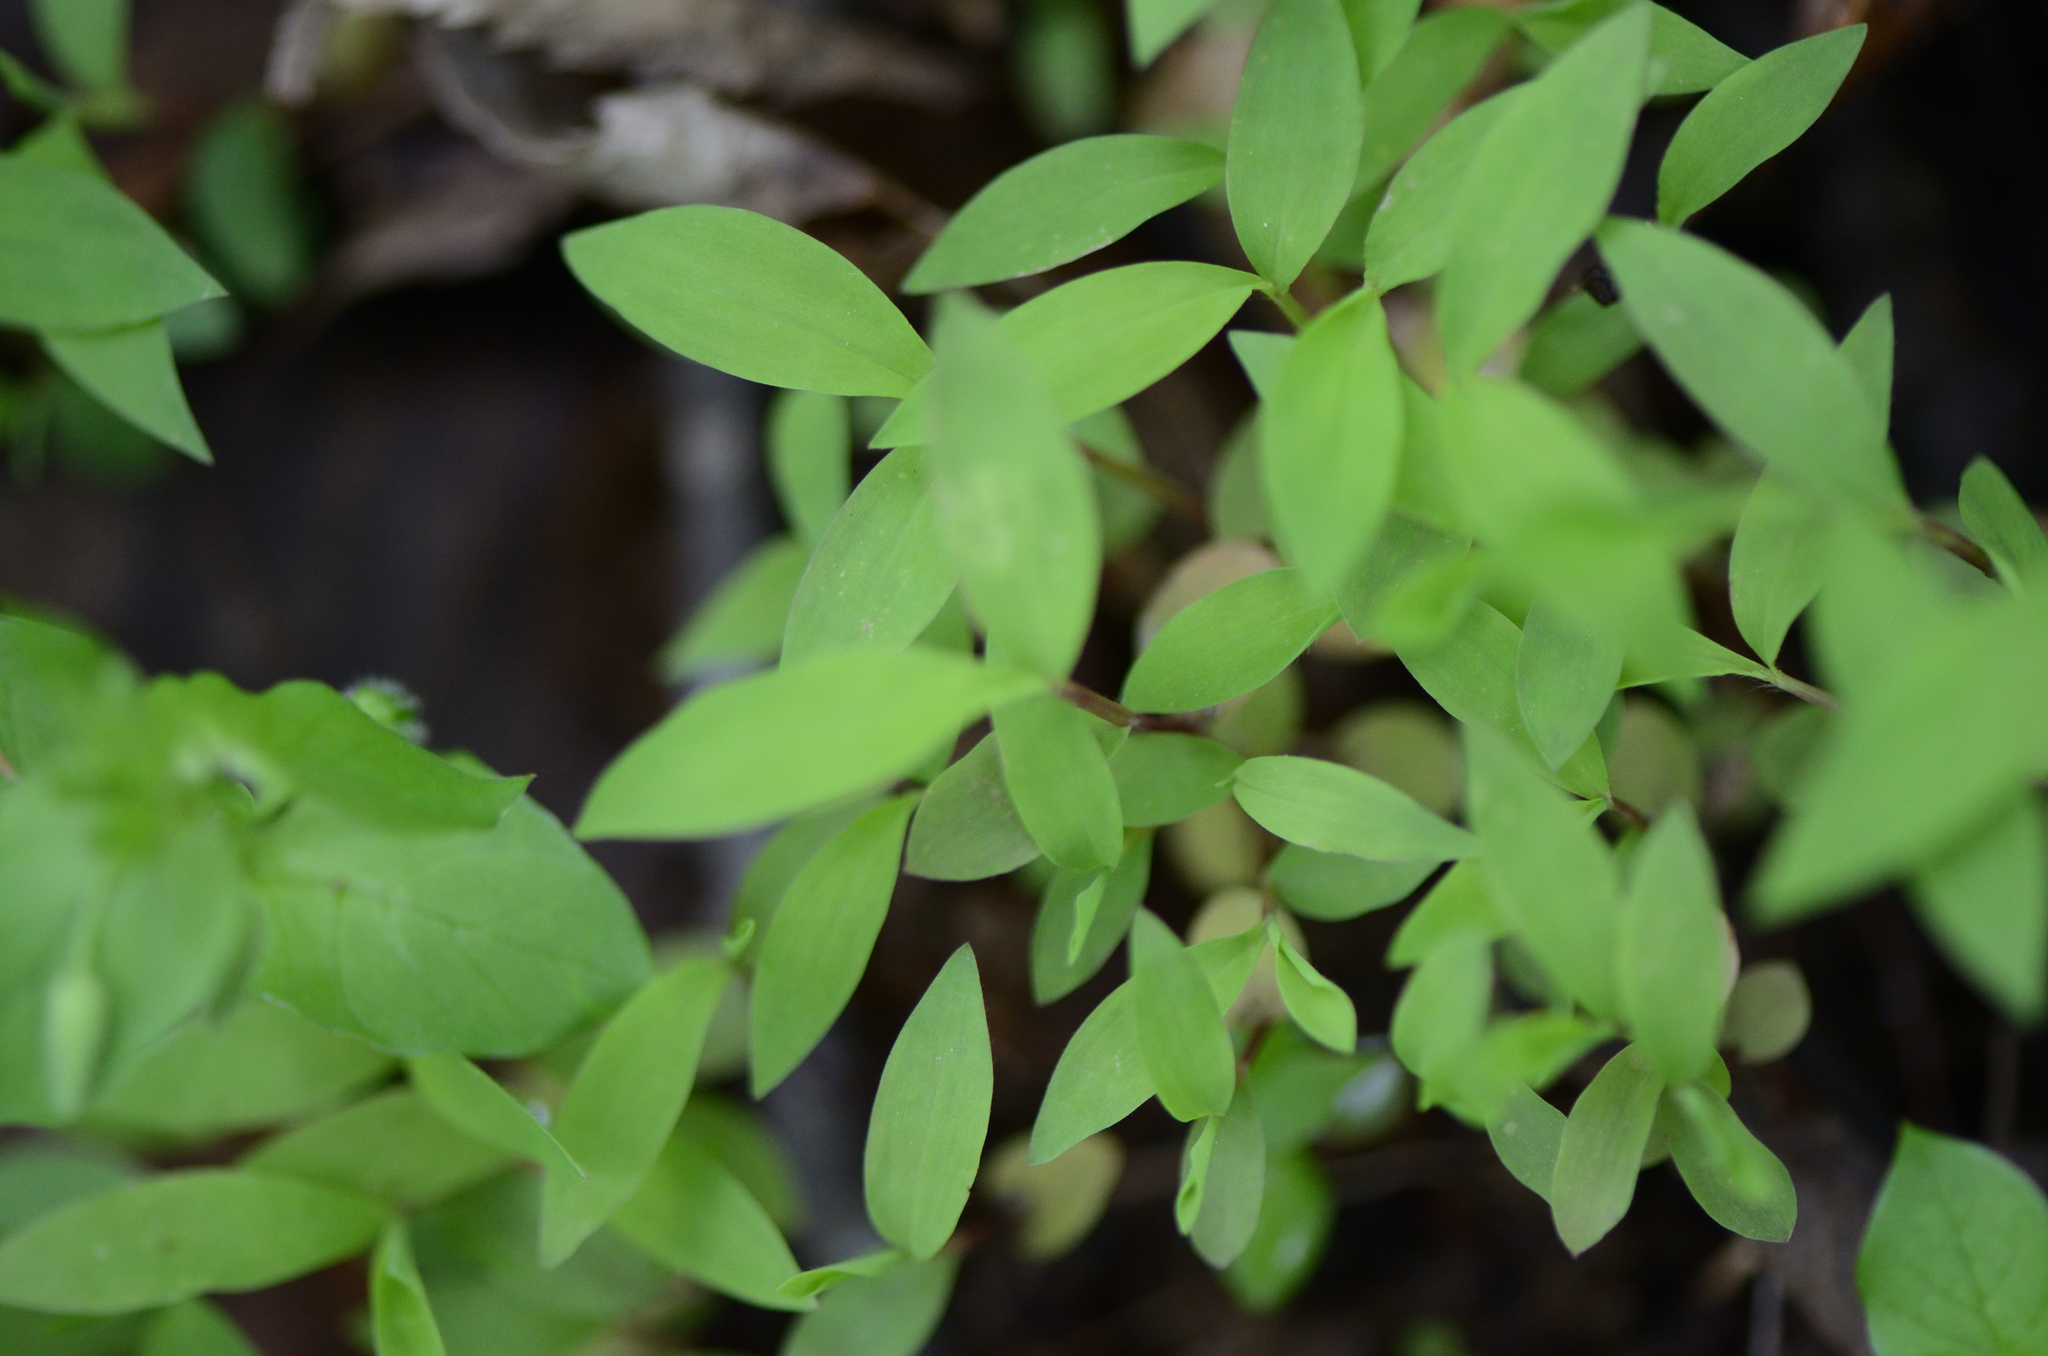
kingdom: Plantae
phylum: Tracheophyta
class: Liliopsida
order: Poales
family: Poaceae
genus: Microstegium
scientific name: Microstegium vimineum
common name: Japanese stiltgrass
